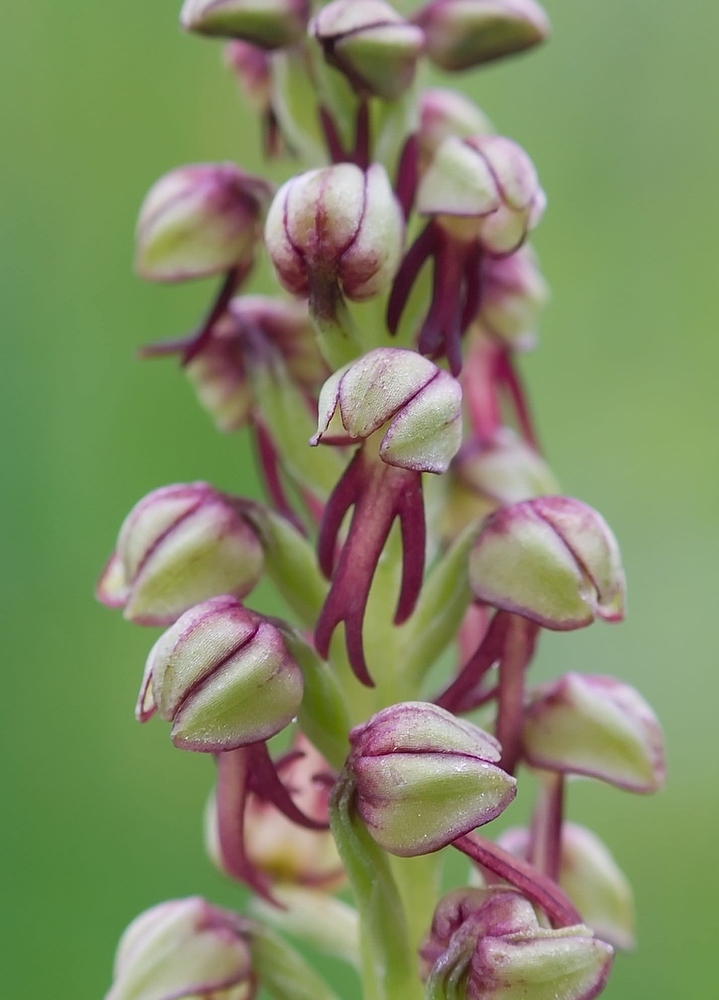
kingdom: Plantae
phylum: Tracheophyta
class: Liliopsida
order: Asparagales
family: Orchidaceae
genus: Orchis
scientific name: Orchis anthropophora
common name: Man orchid
